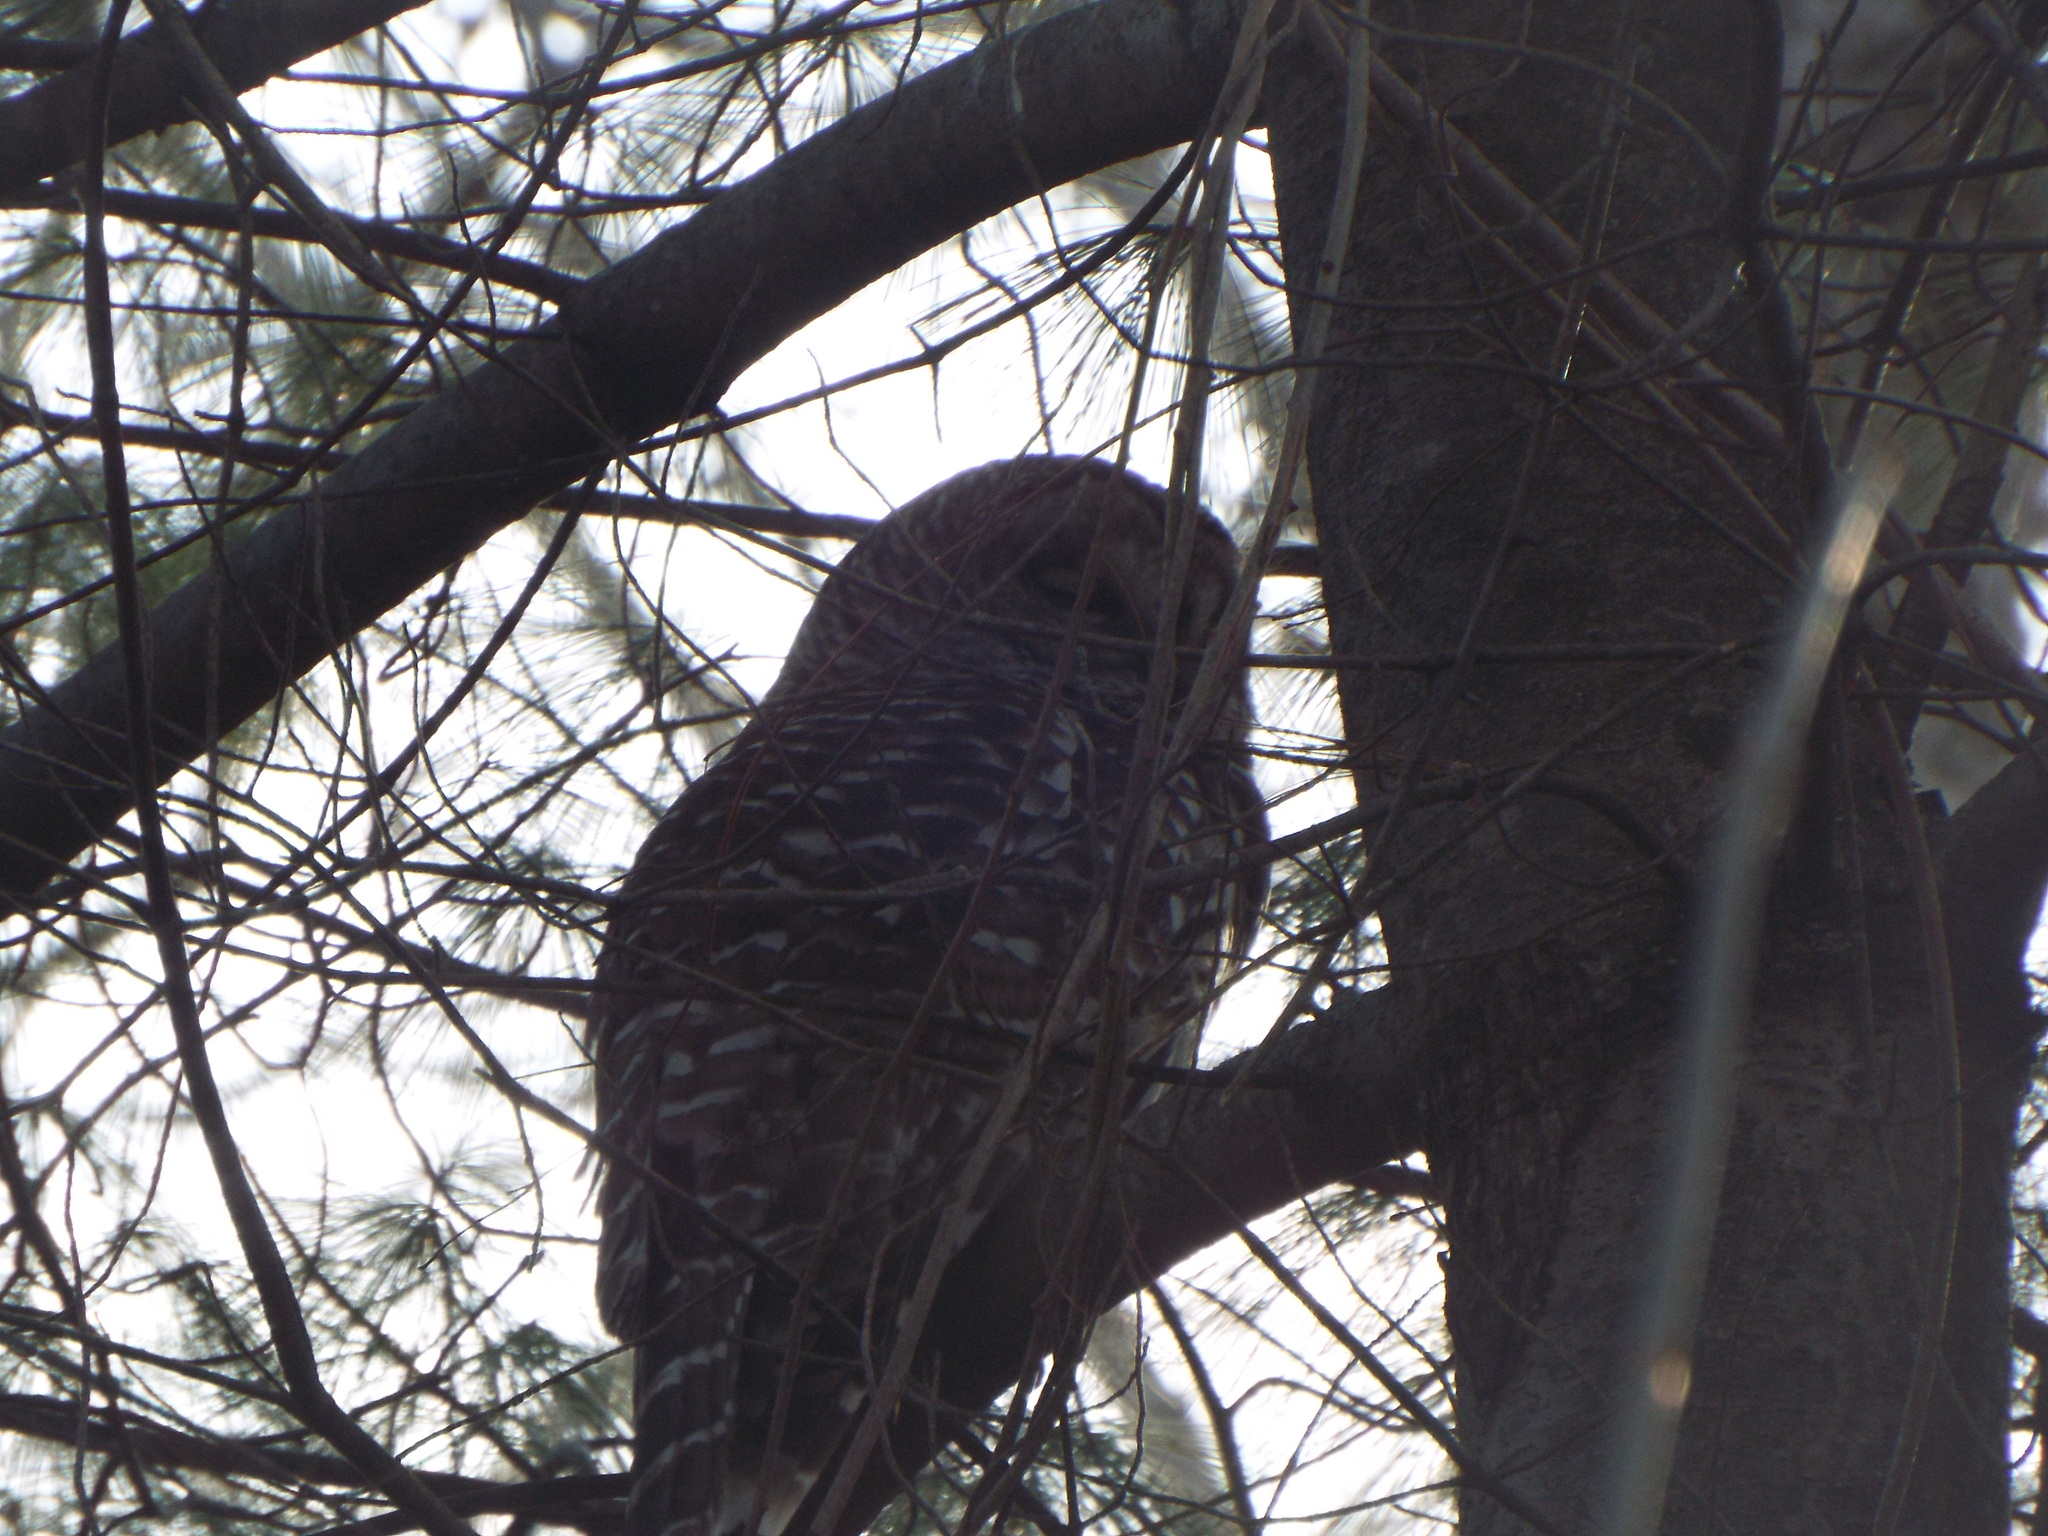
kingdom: Animalia
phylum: Chordata
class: Aves
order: Strigiformes
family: Strigidae
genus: Strix
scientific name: Strix varia
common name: Barred owl
